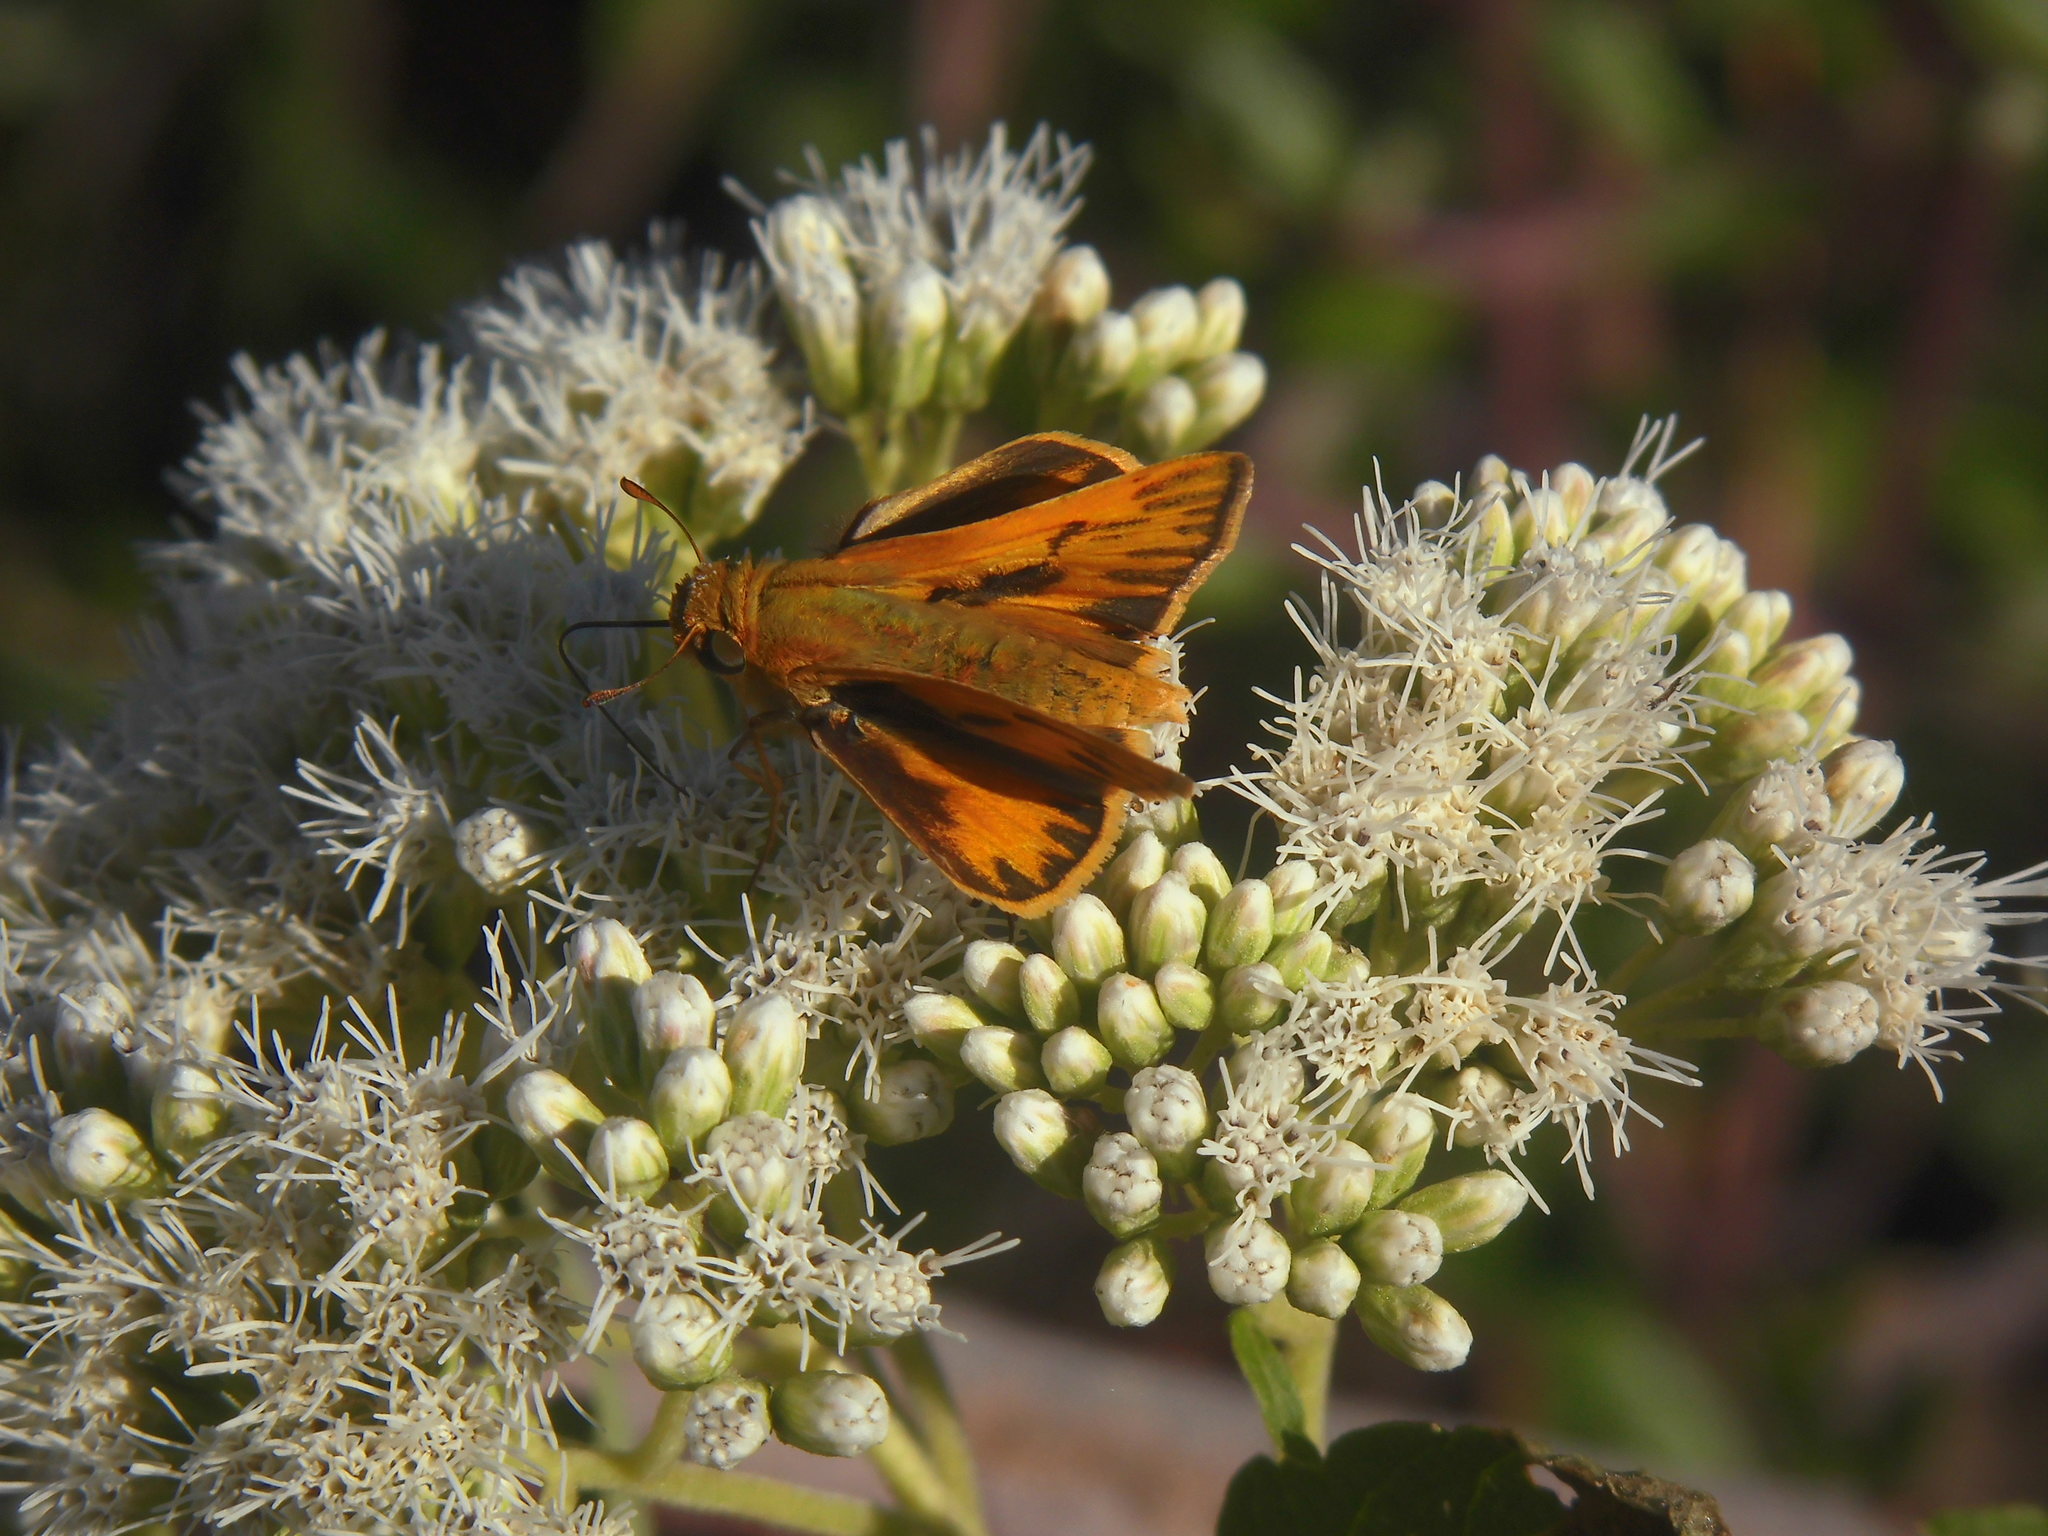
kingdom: Animalia
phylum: Arthropoda
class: Insecta
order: Lepidoptera
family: Hesperiidae
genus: Hylephila
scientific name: Hylephila phyleus
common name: Fiery skipper
